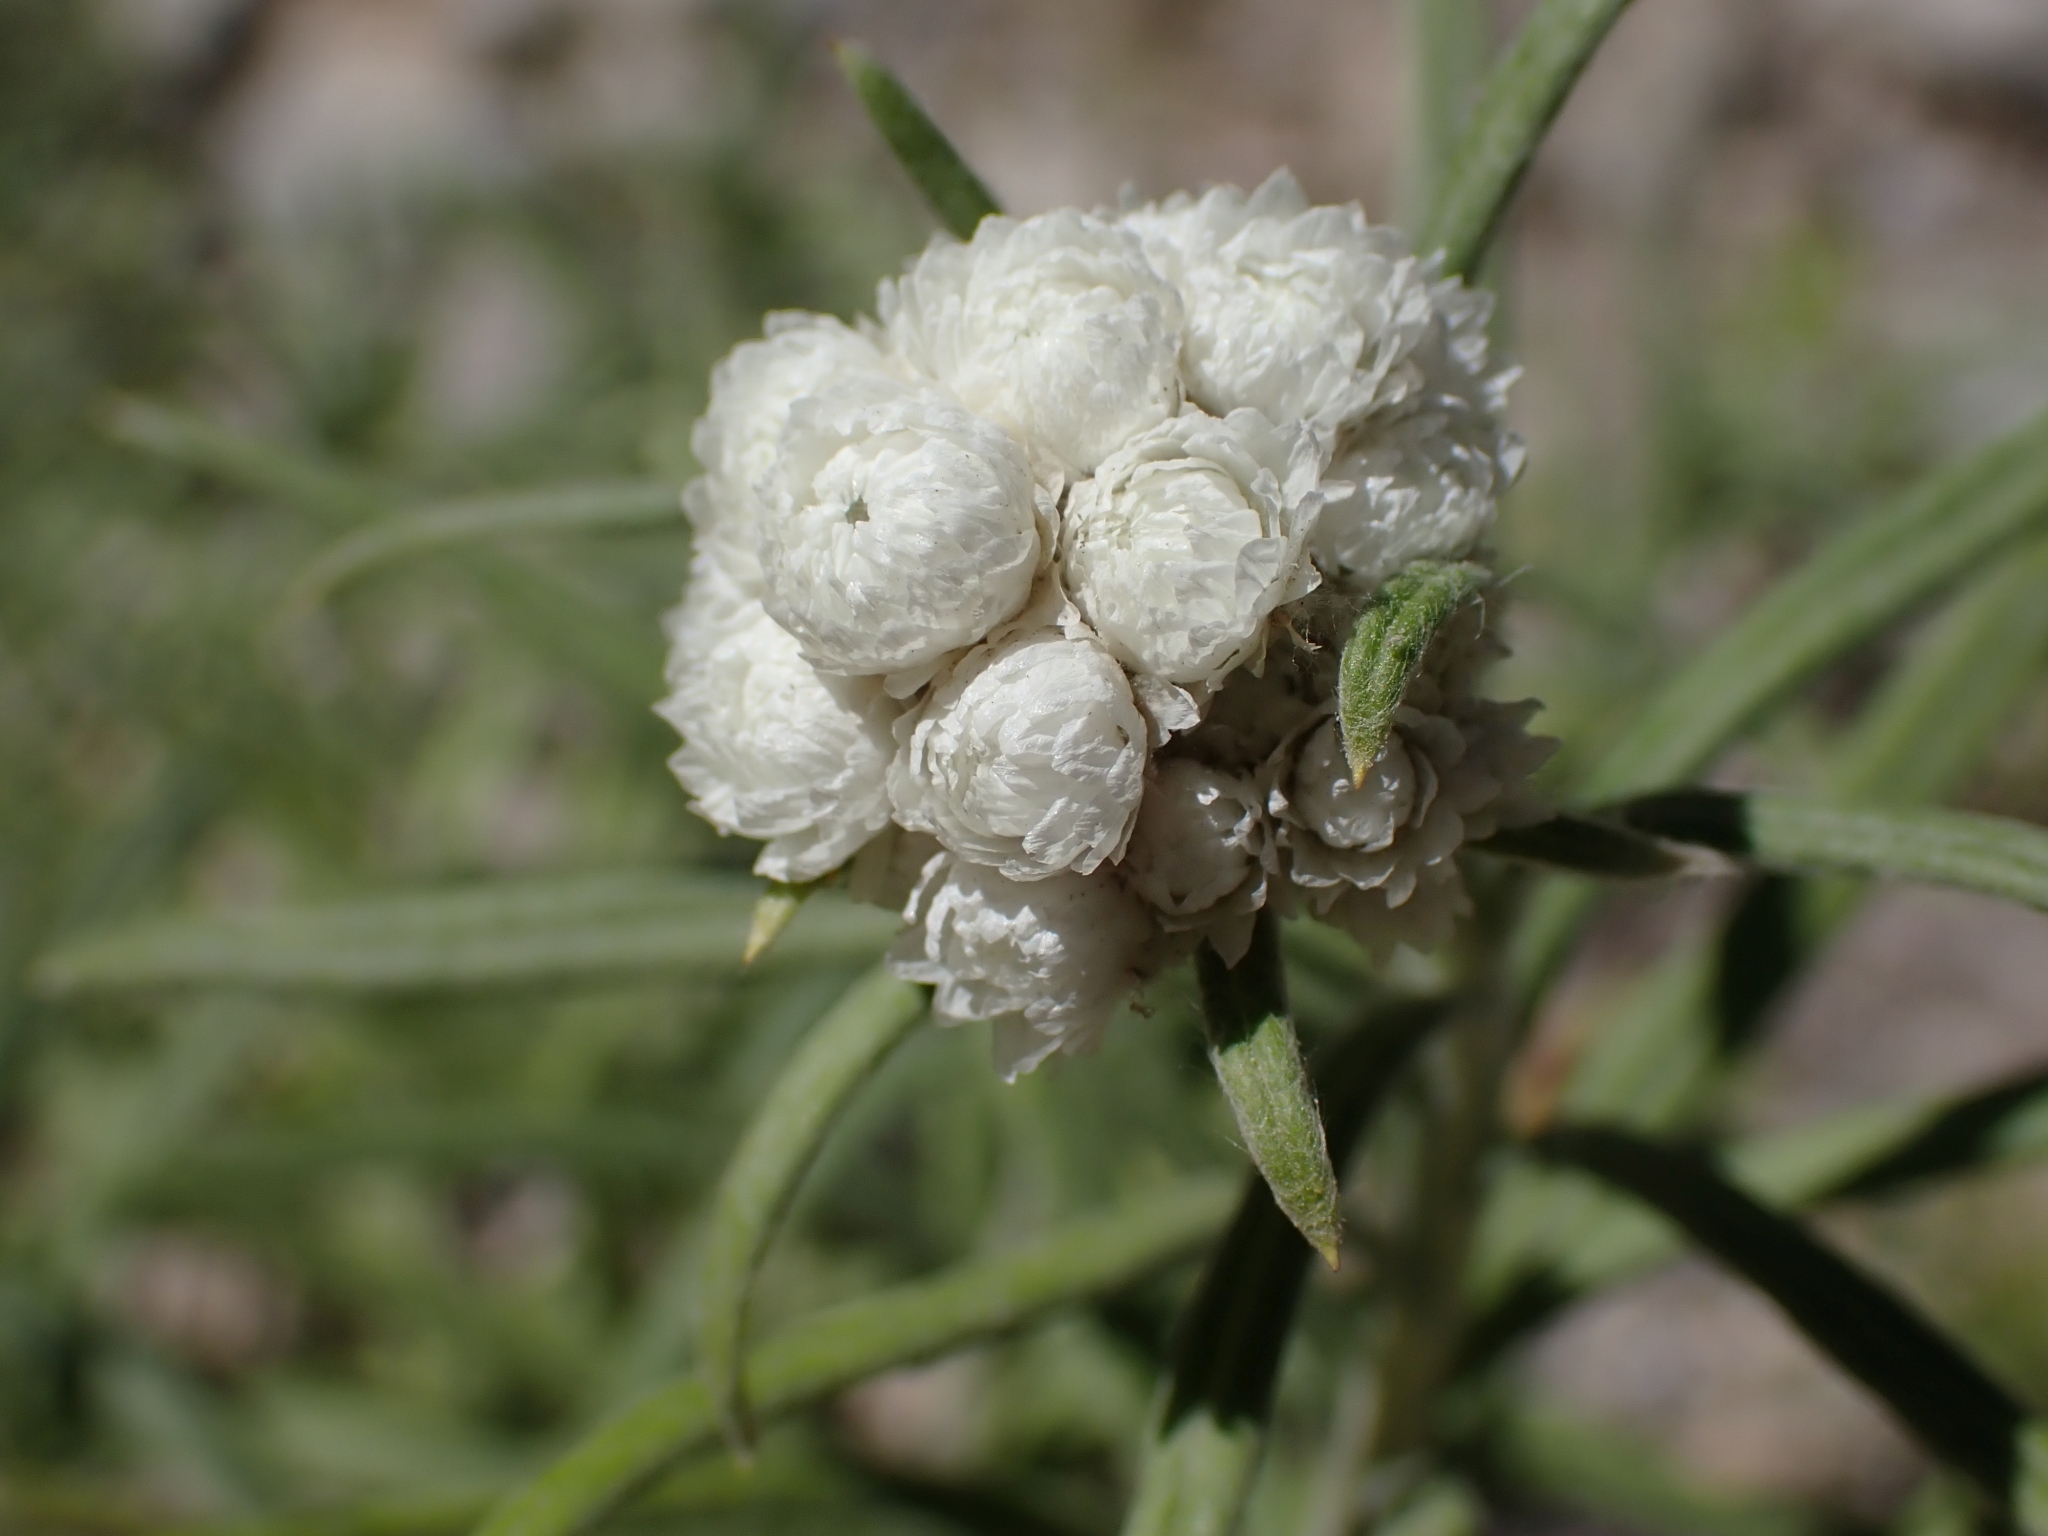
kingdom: Plantae
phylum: Tracheophyta
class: Magnoliopsida
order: Asterales
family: Asteraceae
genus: Anaphalis
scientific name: Anaphalis margaritacea
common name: Pearly everlasting
